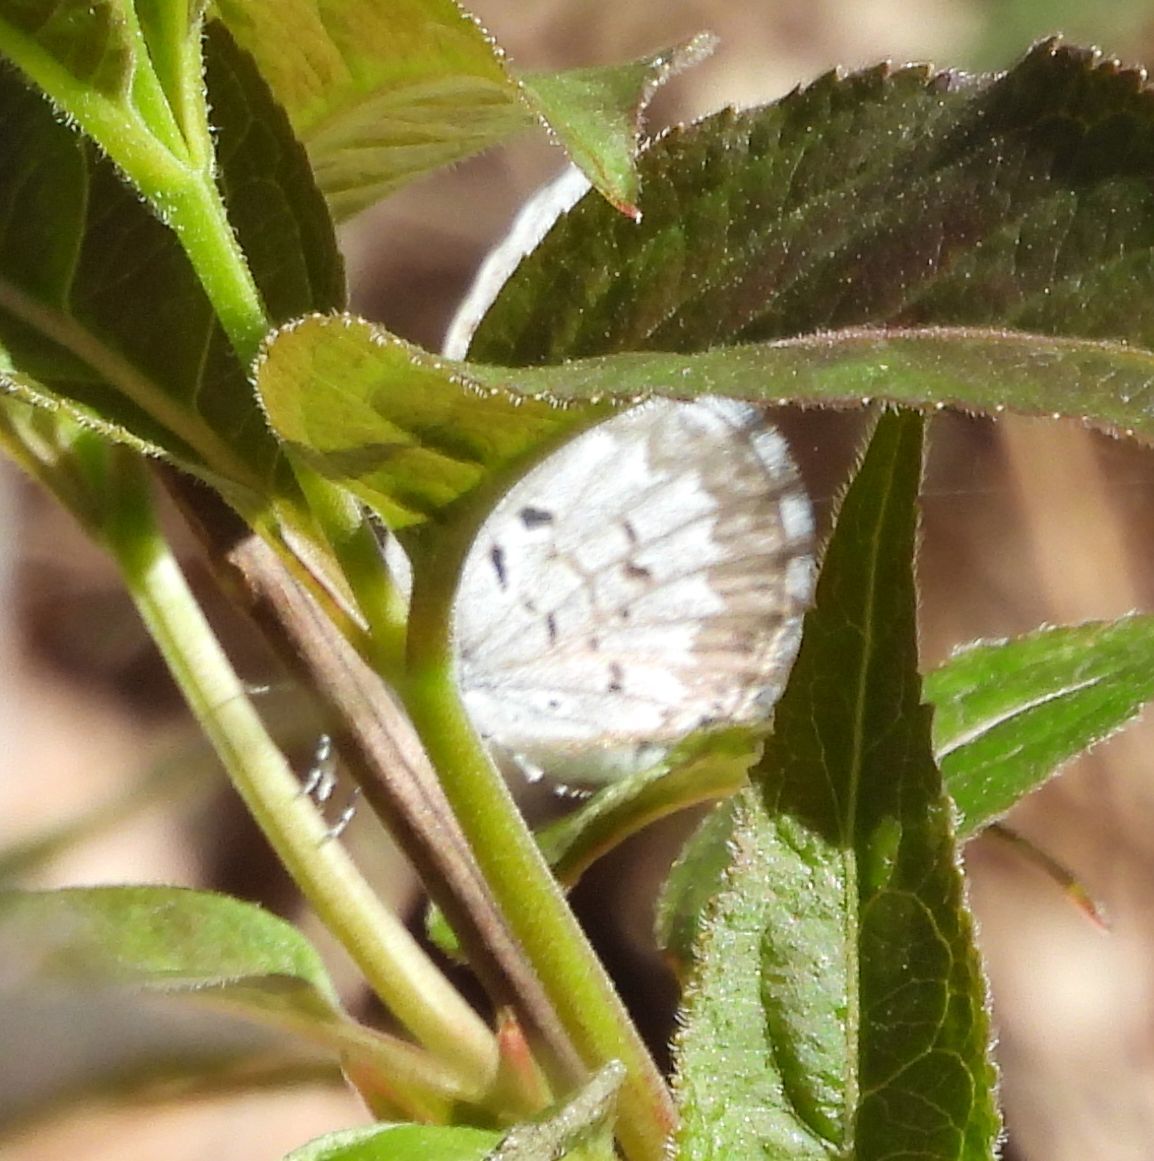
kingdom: Animalia
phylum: Arthropoda
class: Insecta
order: Lepidoptera
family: Lycaenidae
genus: Celastrina
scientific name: Celastrina lucia
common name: Lucia azure
